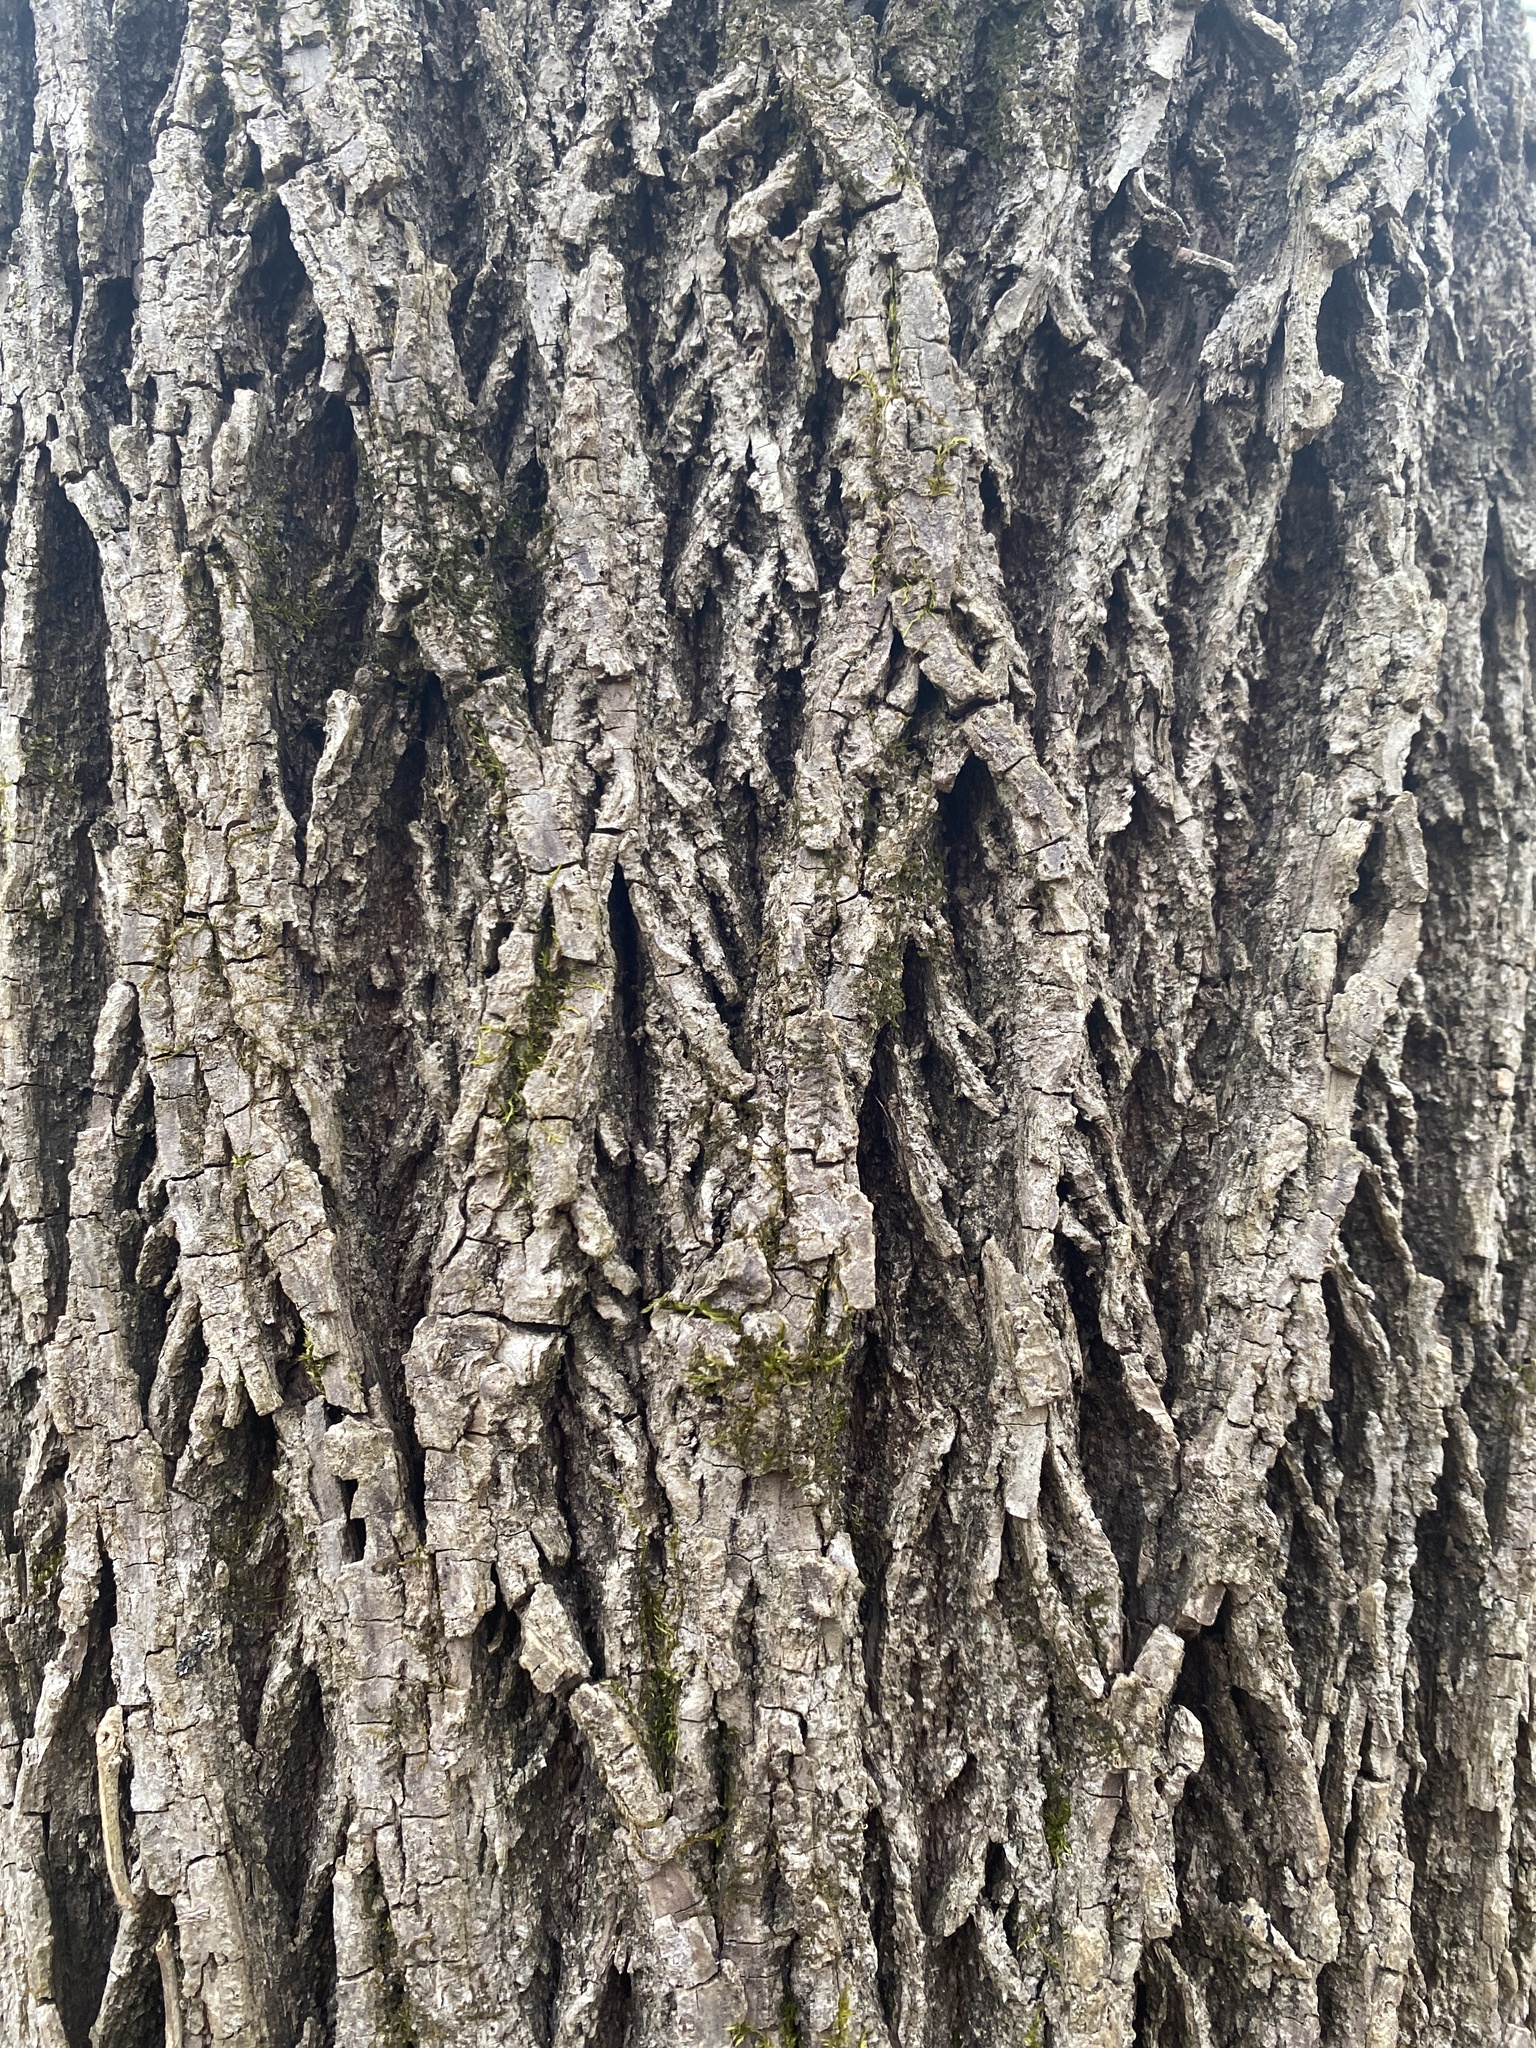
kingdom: Plantae
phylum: Tracheophyta
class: Magnoliopsida
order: Fagales
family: Juglandaceae
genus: Juglans
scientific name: Juglans nigra
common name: Black walnut
